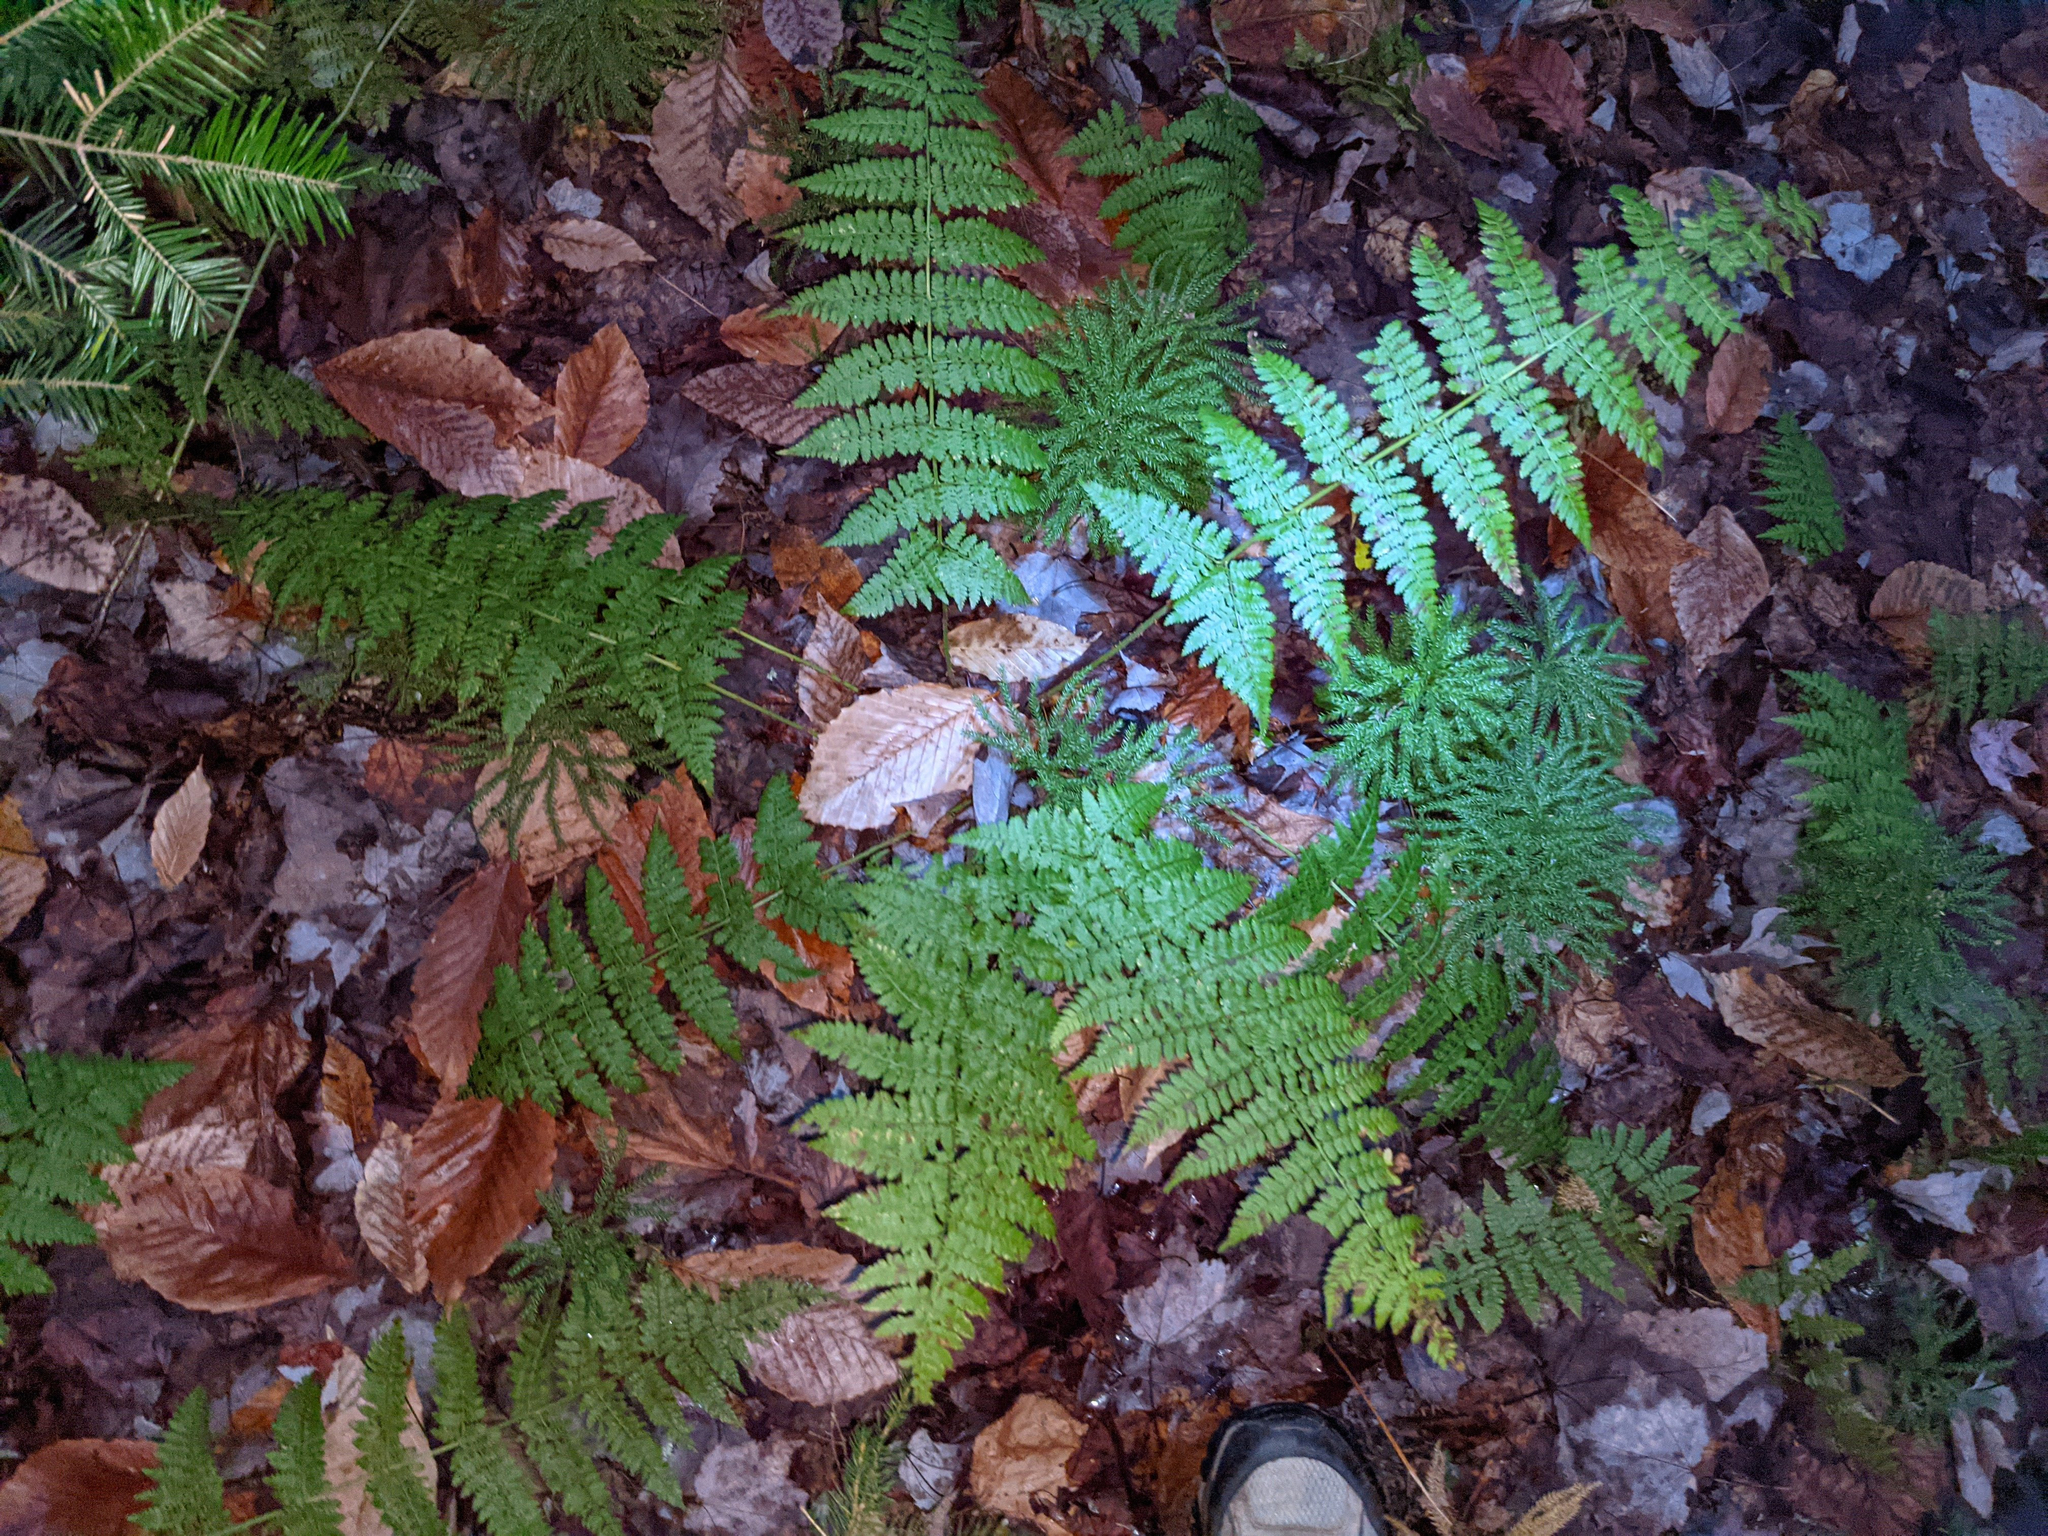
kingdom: Plantae
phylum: Tracheophyta
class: Polypodiopsida
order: Polypodiales
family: Dryopteridaceae
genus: Dryopteris
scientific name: Dryopteris intermedia
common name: Evergreen wood fern
